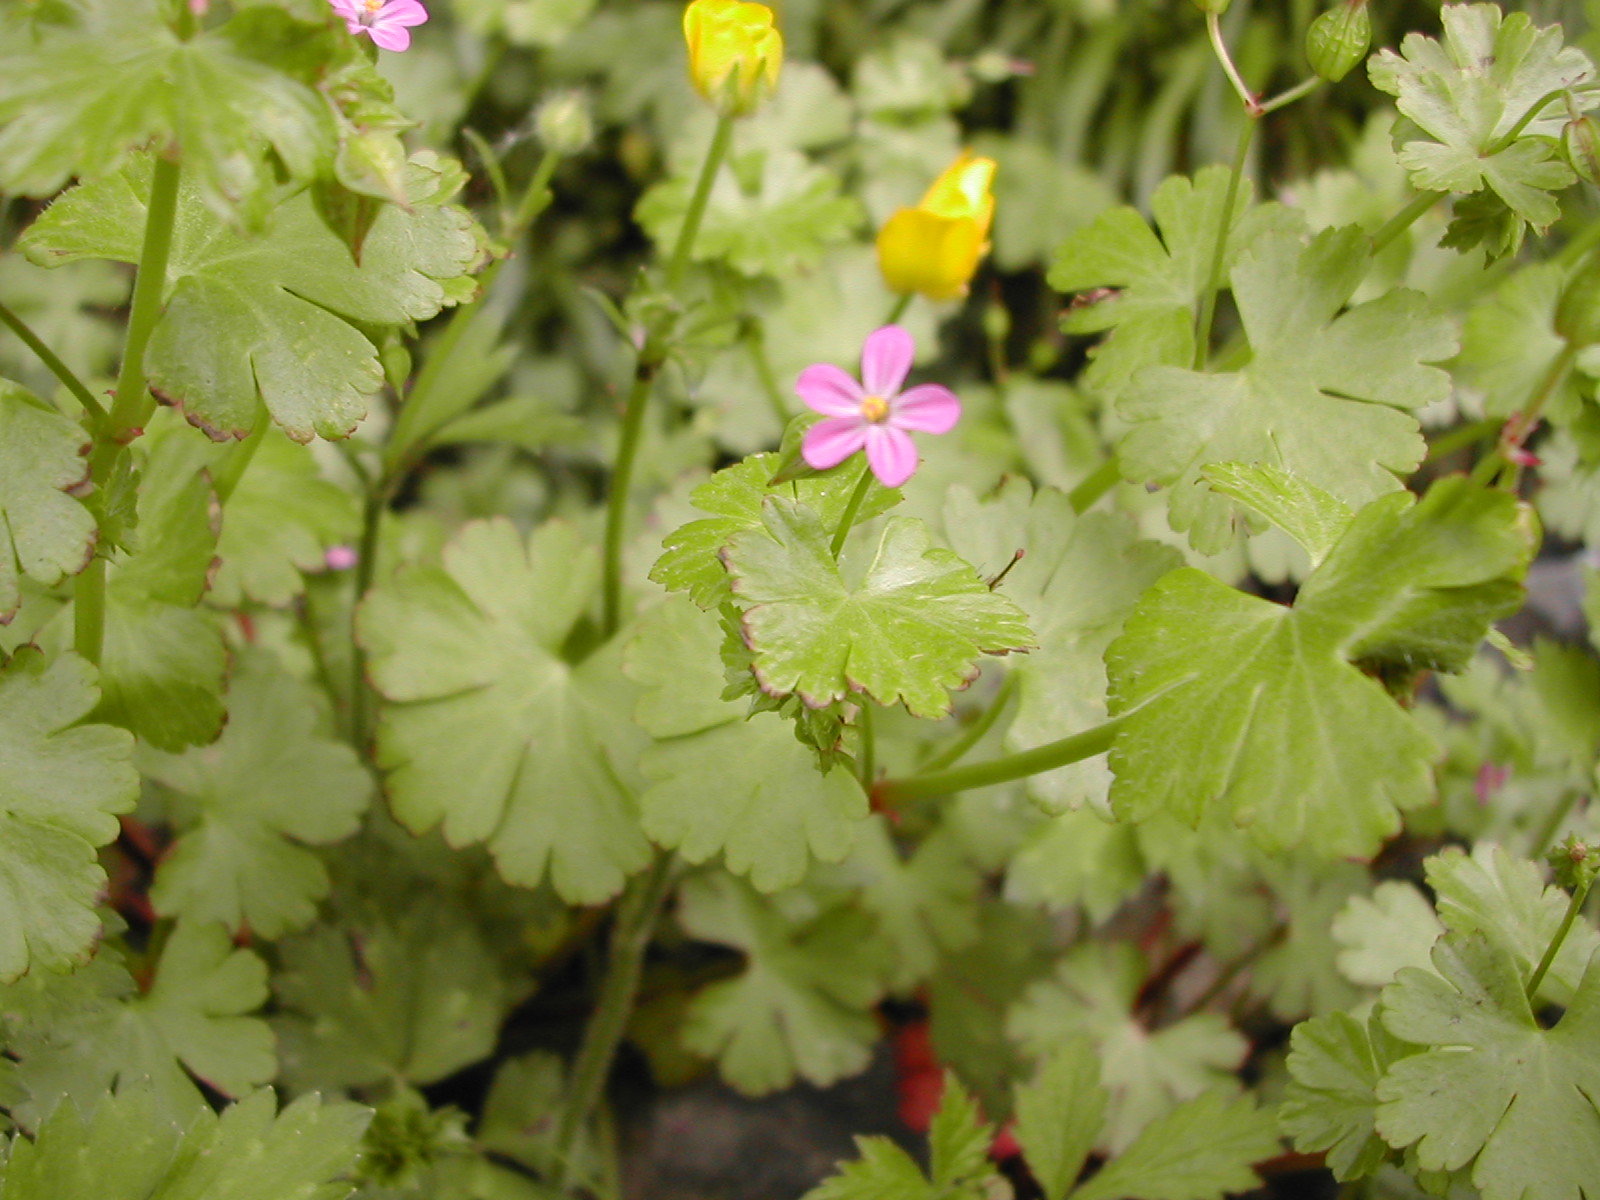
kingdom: Plantae
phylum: Tracheophyta
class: Magnoliopsida
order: Geraniales
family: Geraniaceae
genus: Geranium
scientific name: Geranium lucidum
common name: Shining crane's-bill
